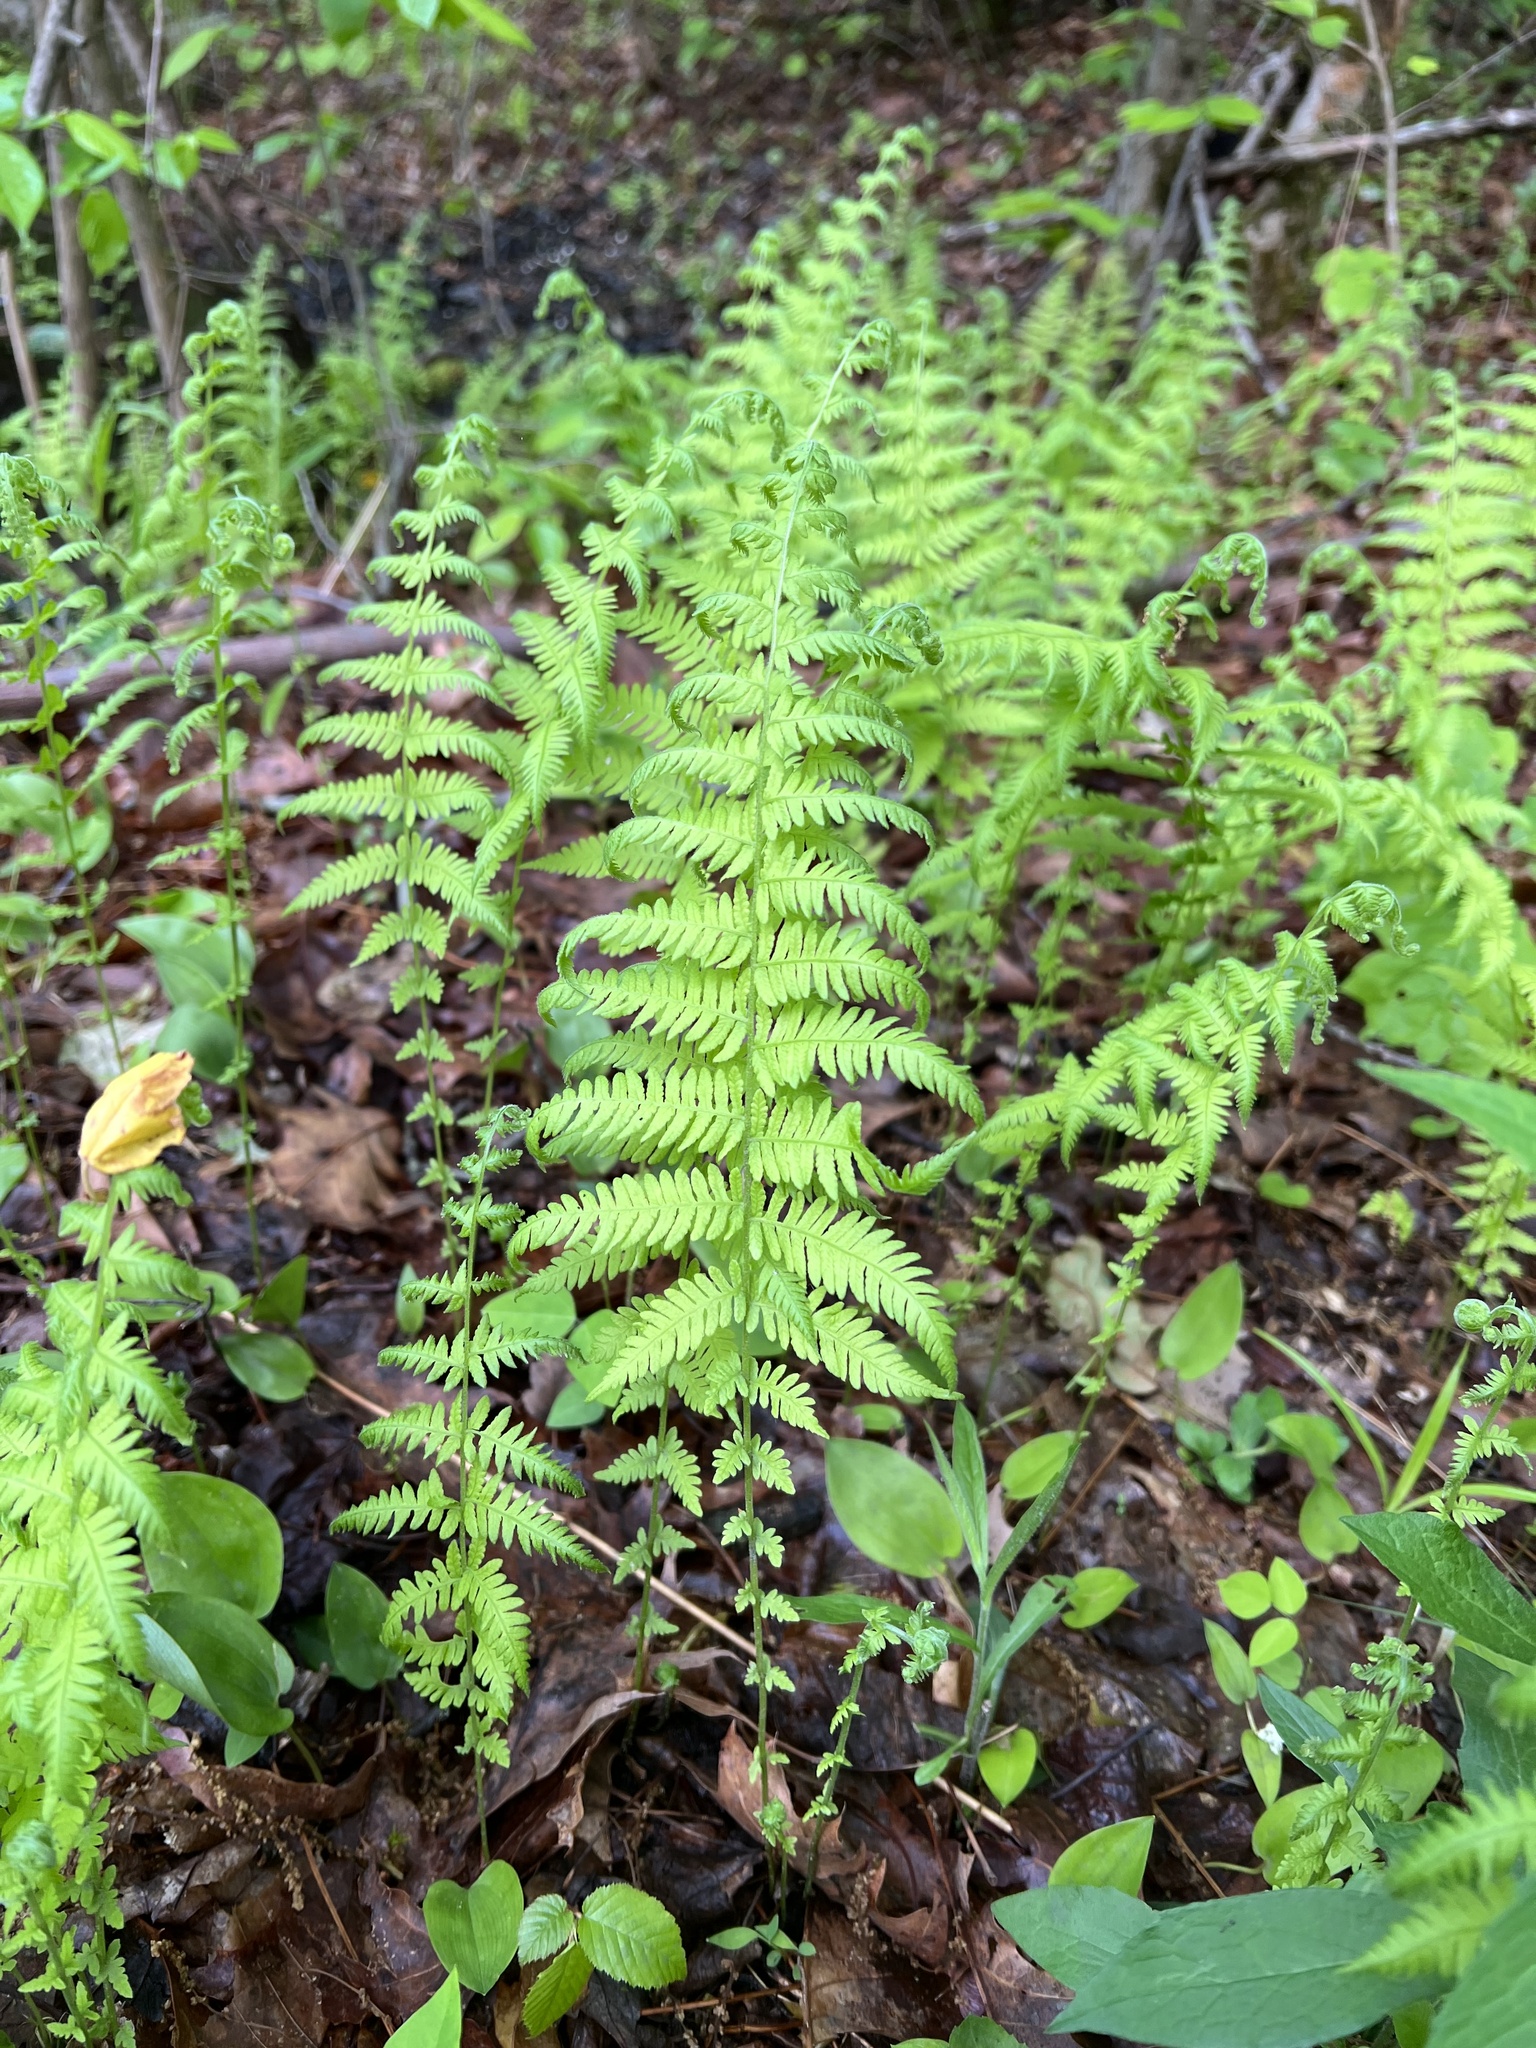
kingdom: Plantae
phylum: Tracheophyta
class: Polypodiopsida
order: Polypodiales
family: Thelypteridaceae
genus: Amauropelta
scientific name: Amauropelta noveboracensis
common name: New york fern
